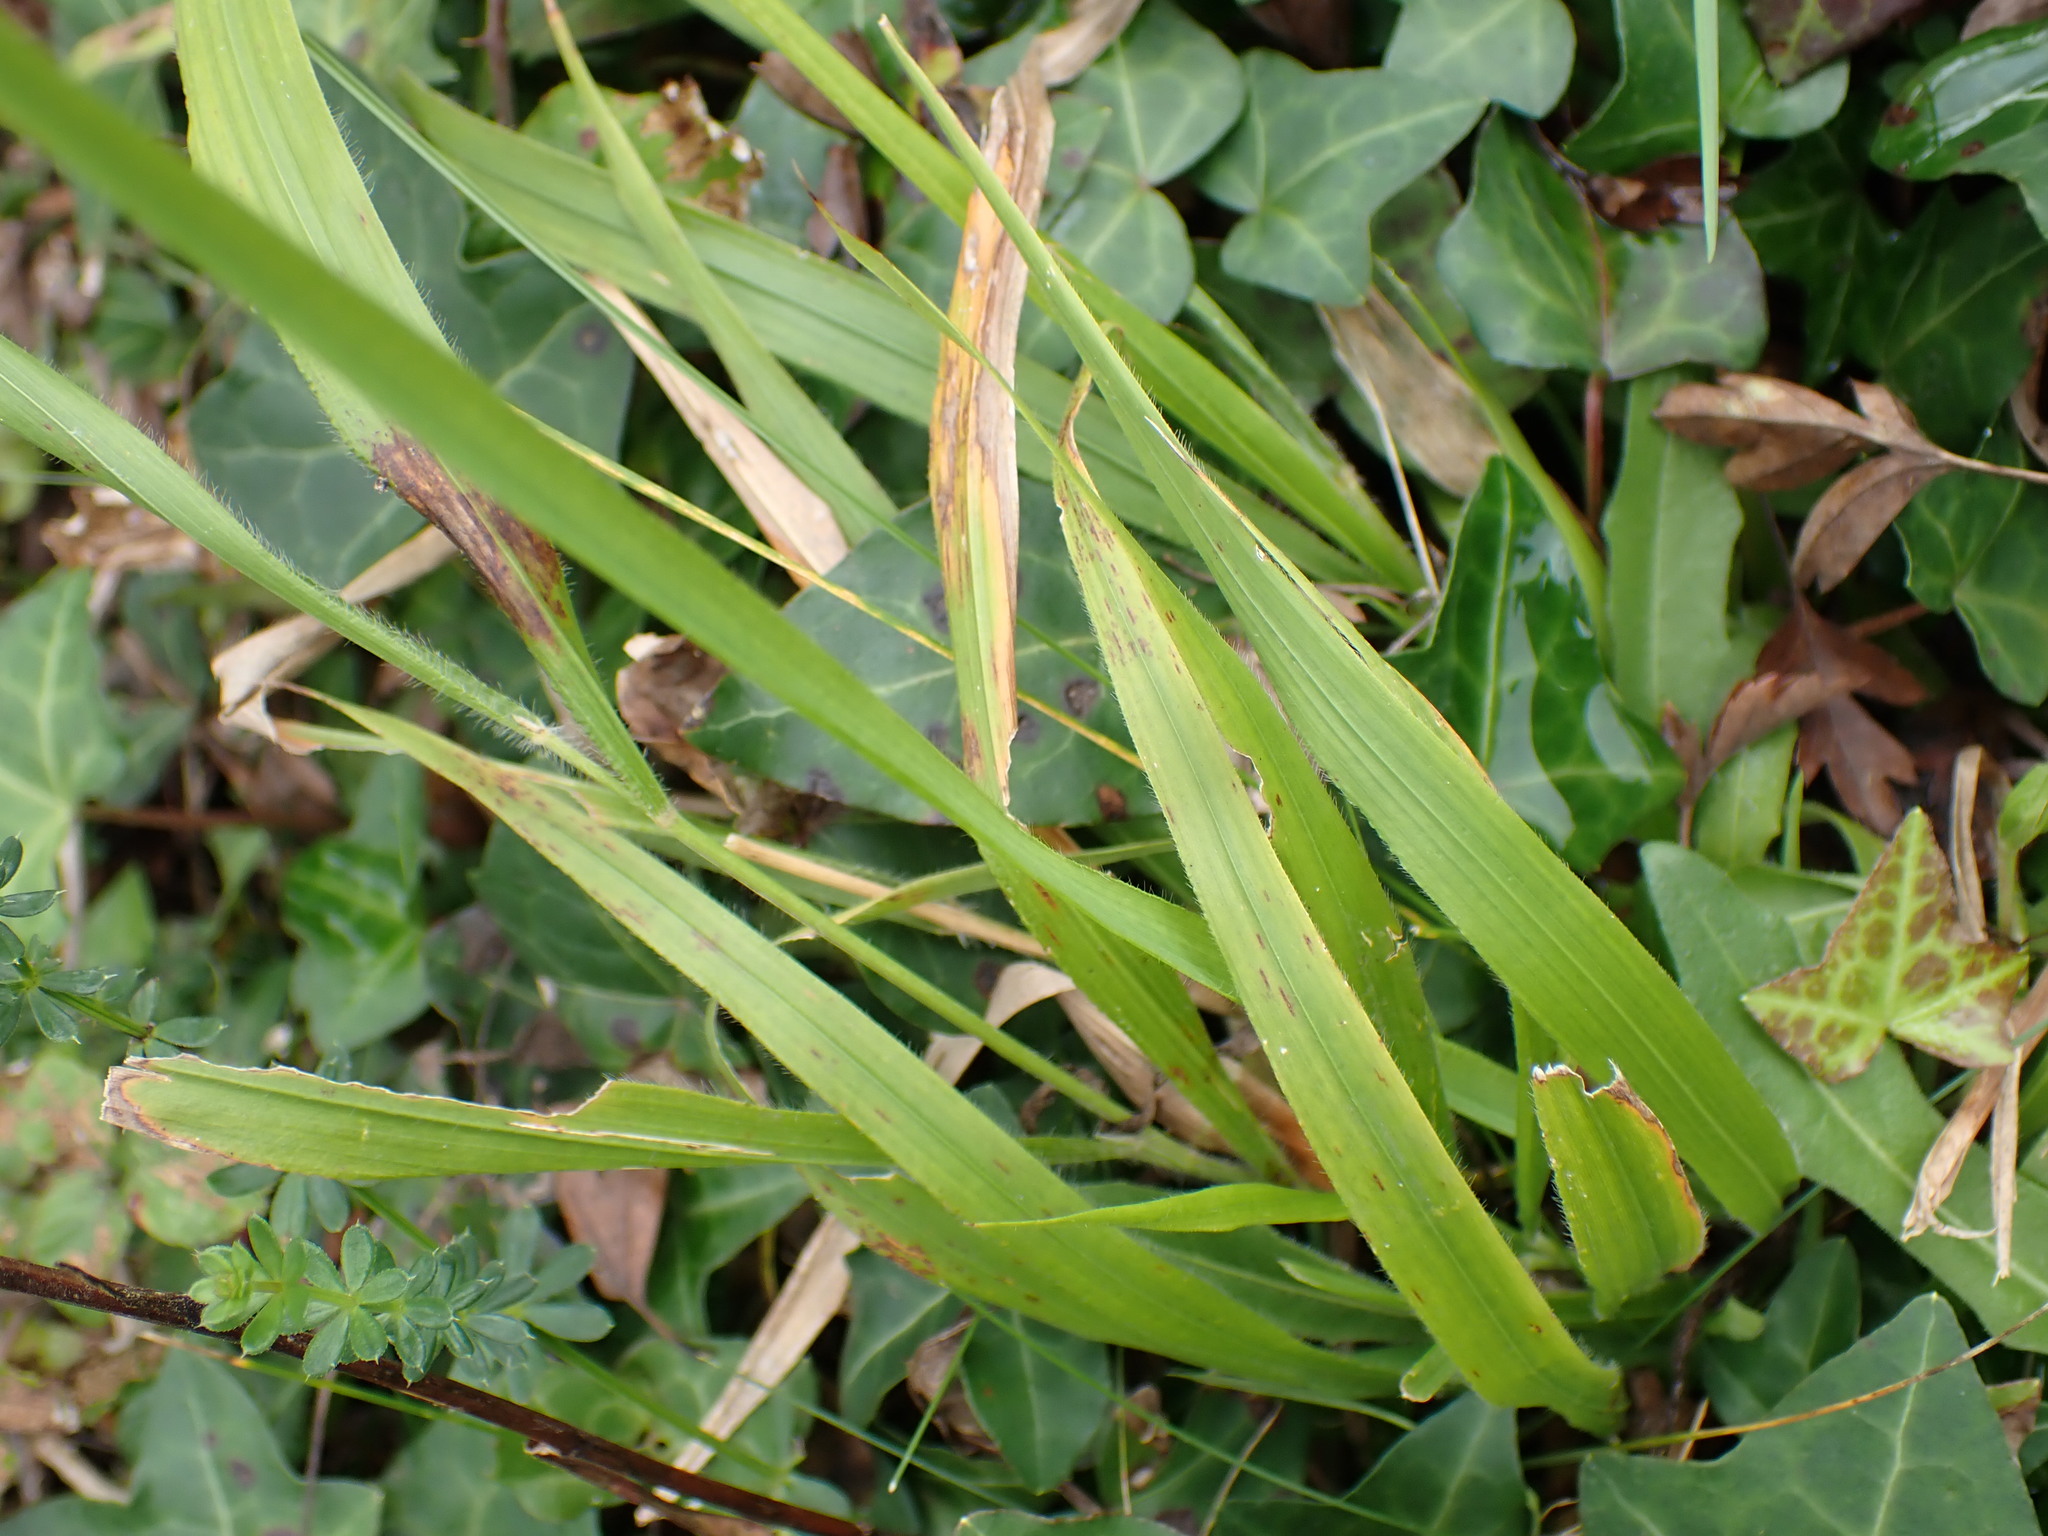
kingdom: Plantae
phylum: Tracheophyta
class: Liliopsida
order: Poales
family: Poaceae
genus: Brachypodium
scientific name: Brachypodium sylvaticum
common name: False-brome
